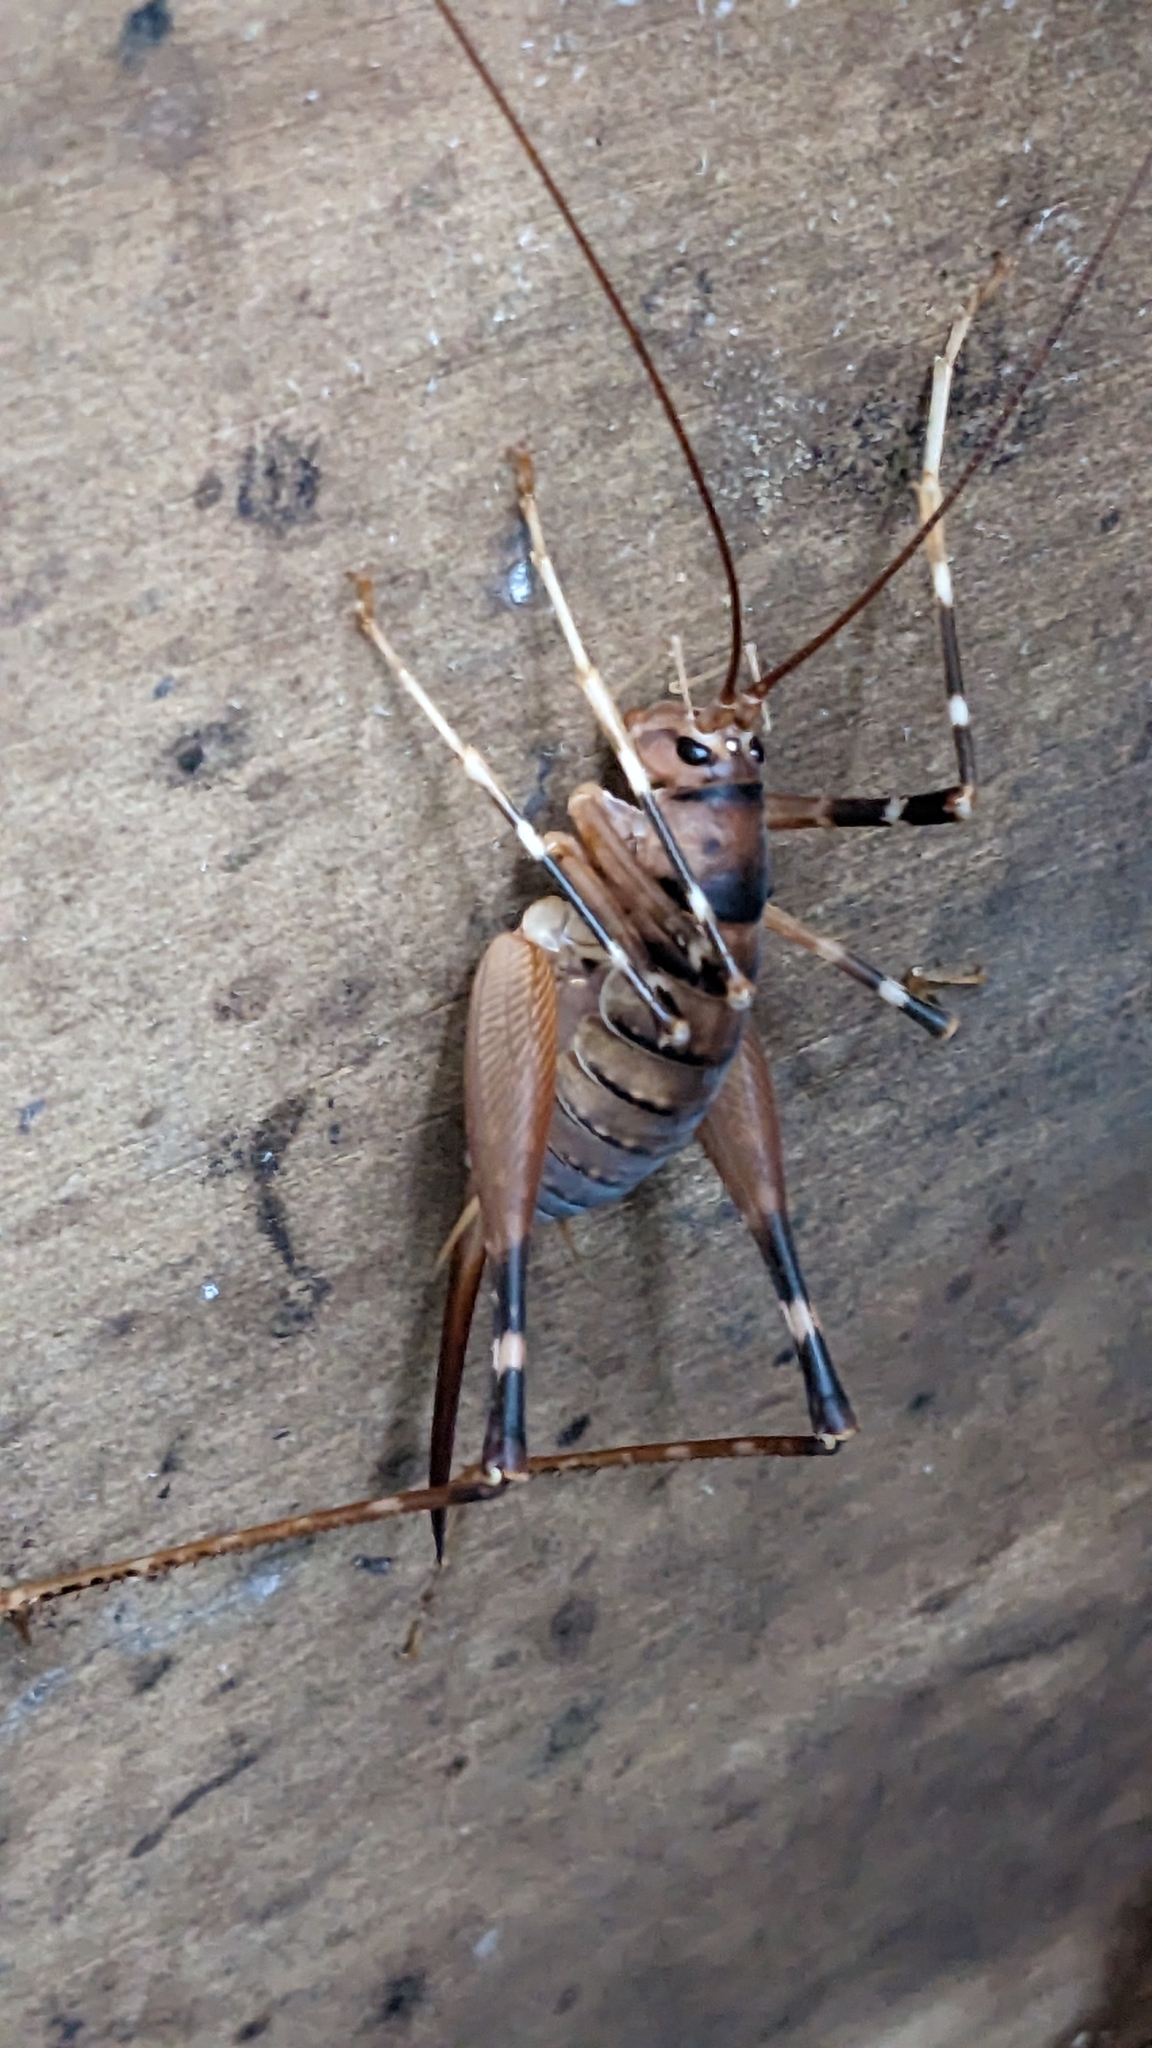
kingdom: Animalia
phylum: Arthropoda
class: Insecta
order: Orthoptera
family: Rhaphidophoridae
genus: Pachyrhamma
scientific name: Pachyrhamma edwardsii
